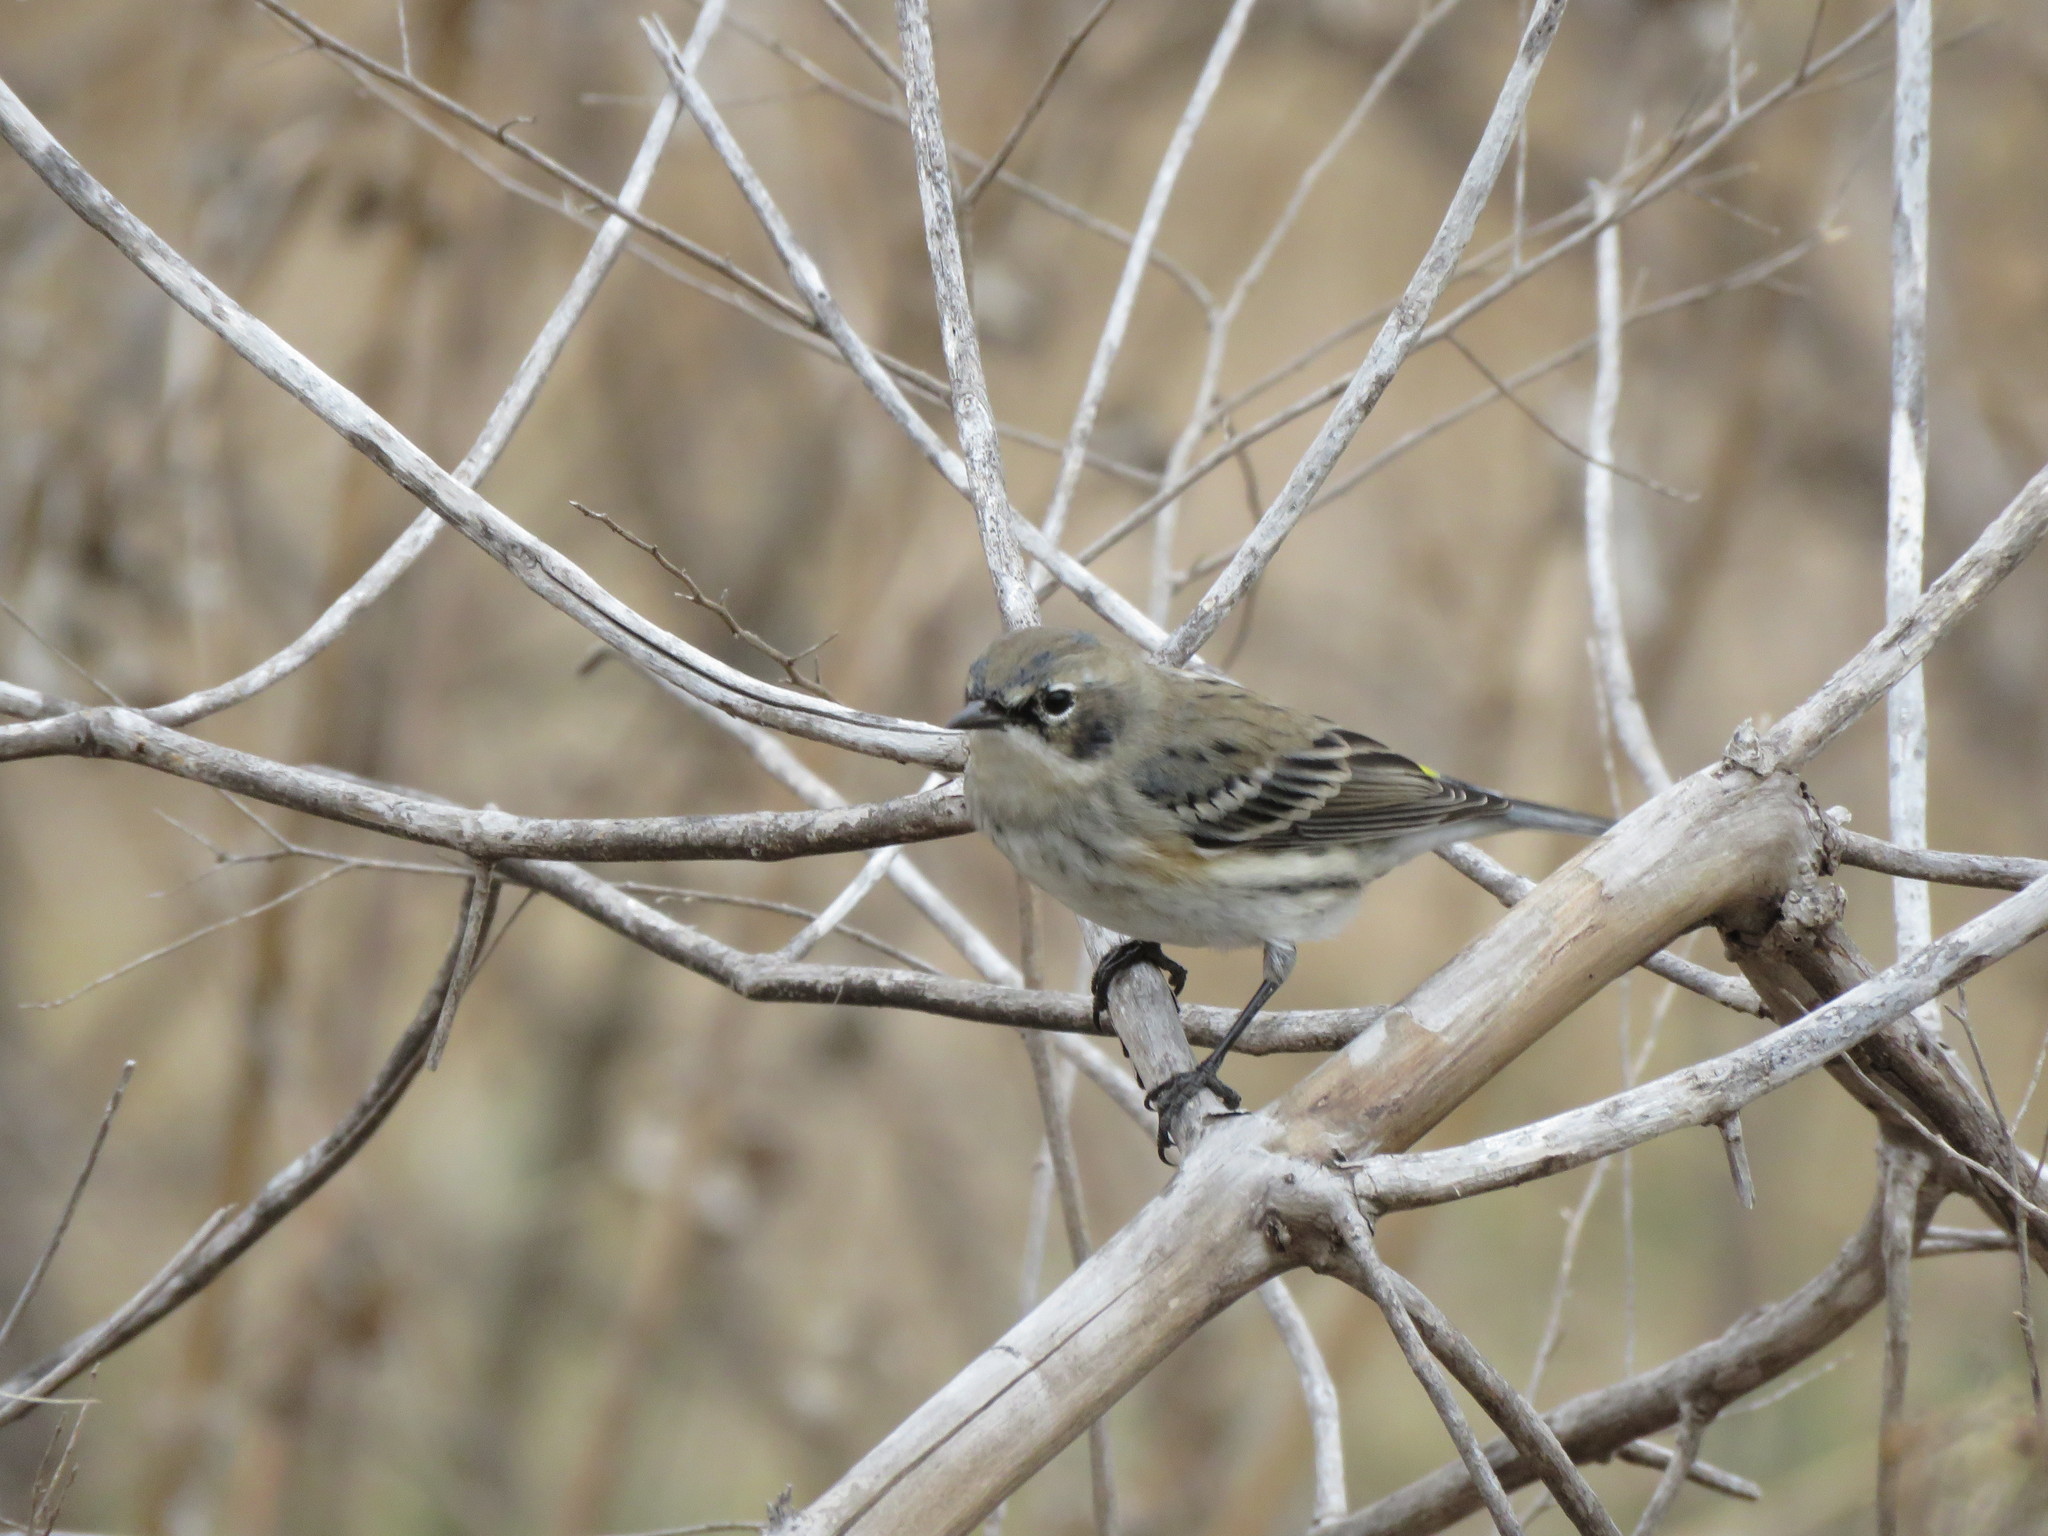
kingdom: Animalia
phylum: Chordata
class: Aves
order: Passeriformes
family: Parulidae
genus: Setophaga
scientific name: Setophaga coronata
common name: Myrtle warbler
